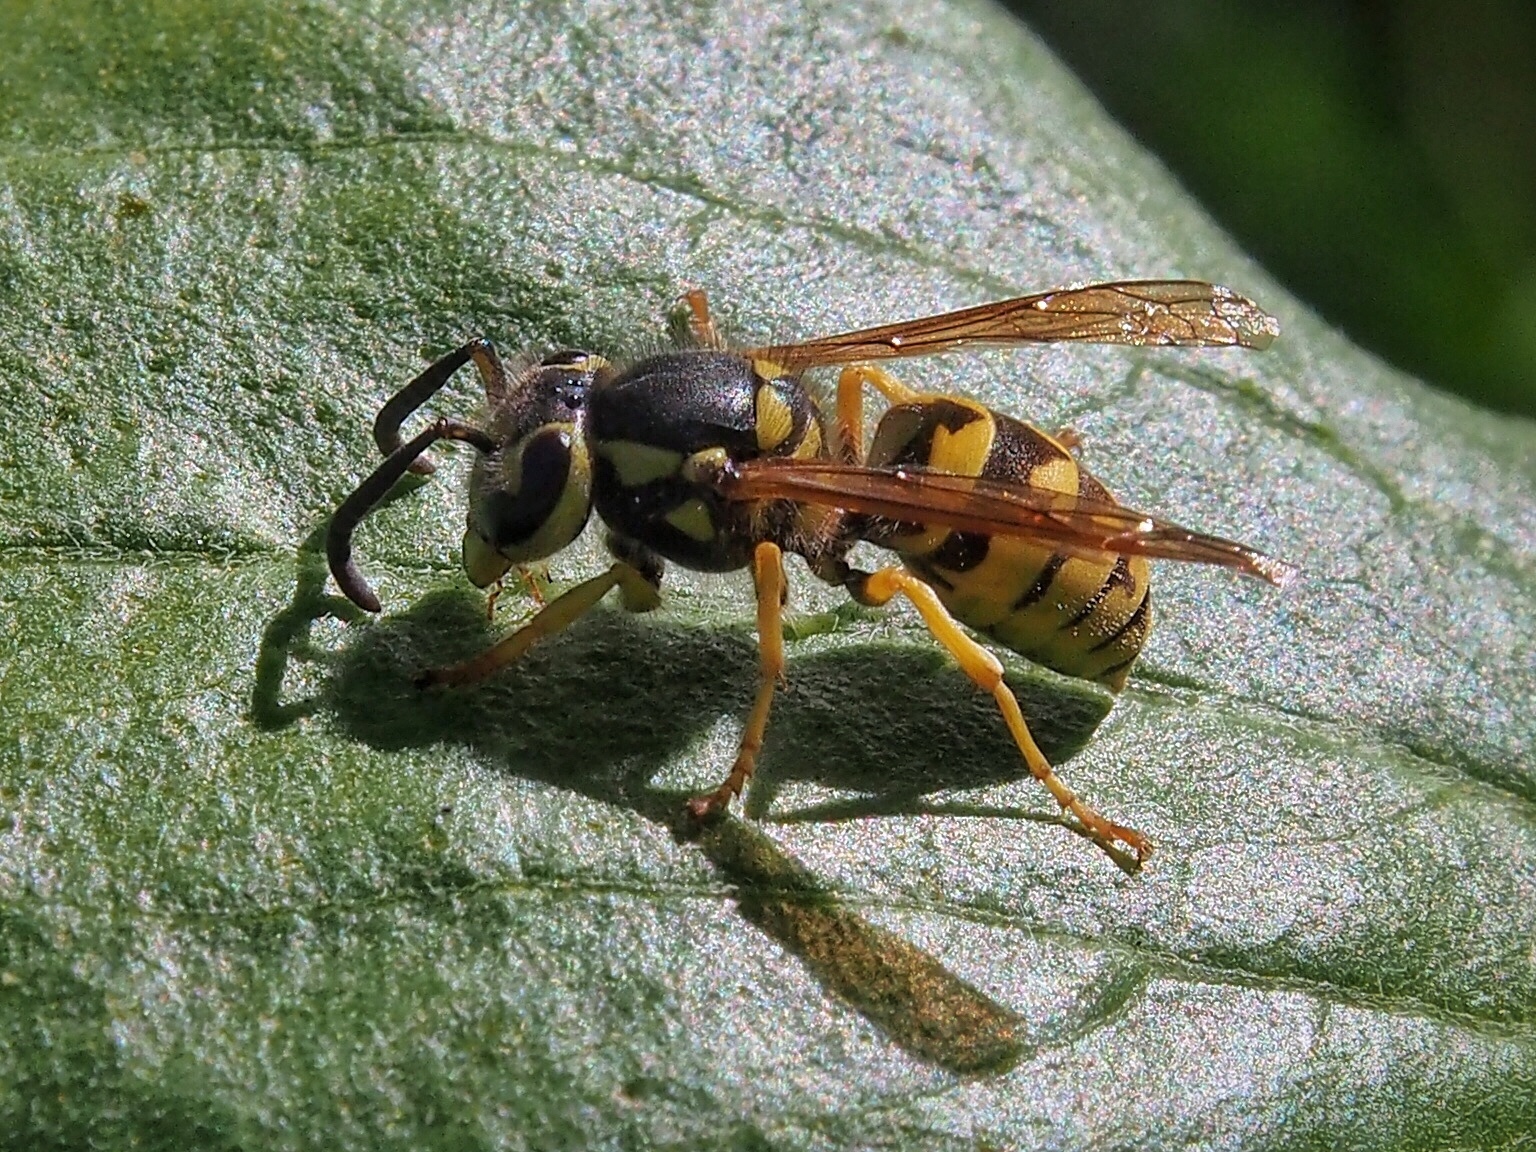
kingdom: Animalia
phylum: Arthropoda
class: Insecta
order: Hymenoptera
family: Vespidae
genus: Vespula
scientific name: Vespula pensylvanica
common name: Western yellowjacket
